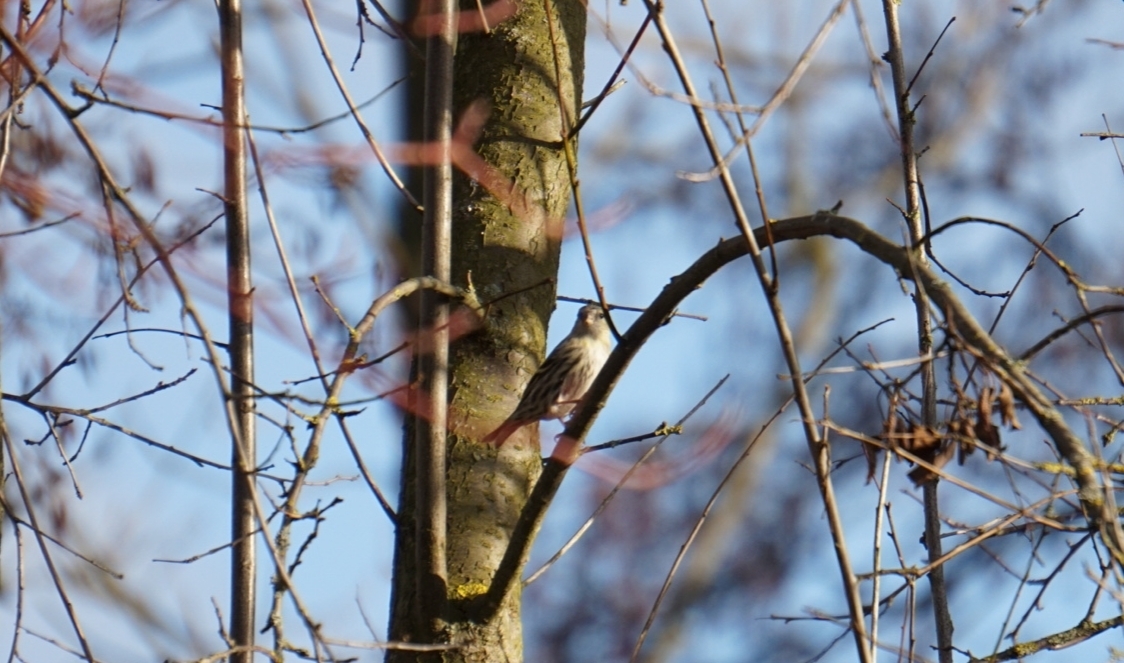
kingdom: Animalia
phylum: Chordata
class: Aves
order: Passeriformes
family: Fringillidae
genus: Spinus
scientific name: Spinus spinus
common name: Eurasian siskin
